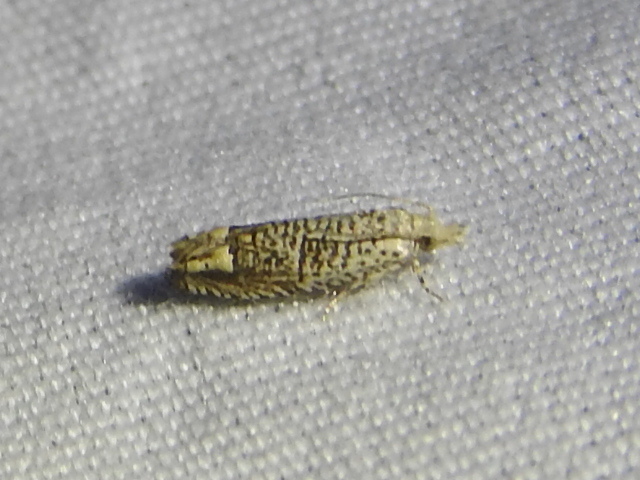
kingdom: Animalia
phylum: Arthropoda
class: Insecta
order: Lepidoptera
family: Tortricidae
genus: Eucosma
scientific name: Eucosma argutipunctana
